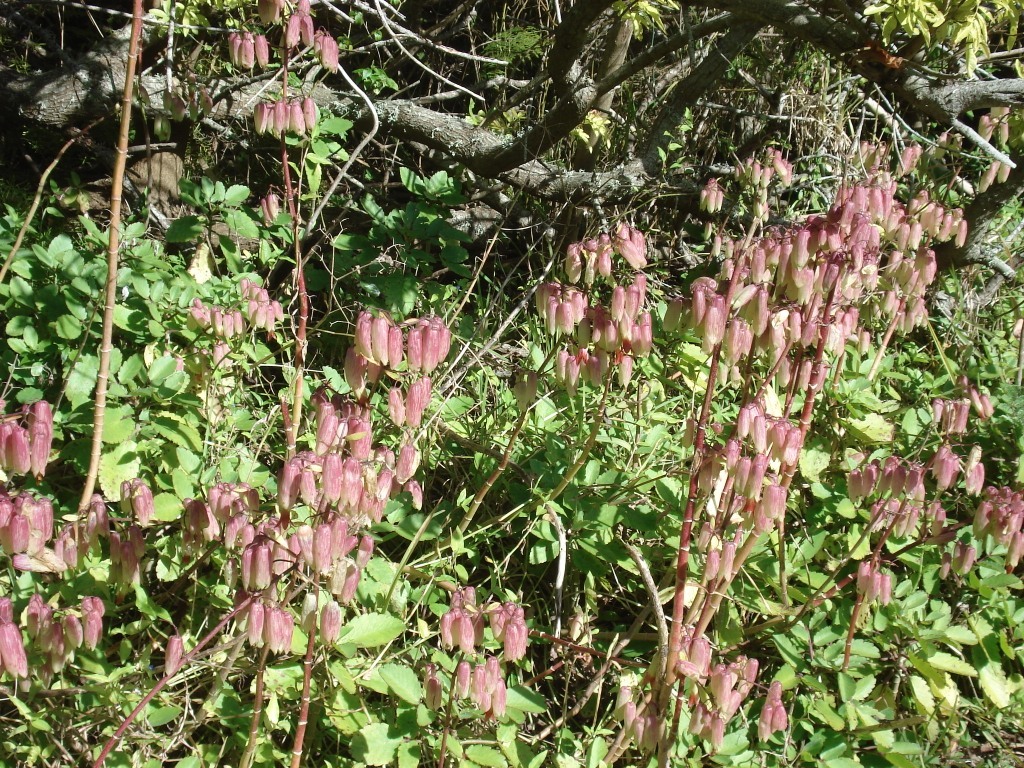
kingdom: Plantae
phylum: Tracheophyta
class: Magnoliopsida
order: Saxifragales
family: Crassulaceae
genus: Kalanchoe
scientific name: Kalanchoe pinnata
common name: Cathedral bells
